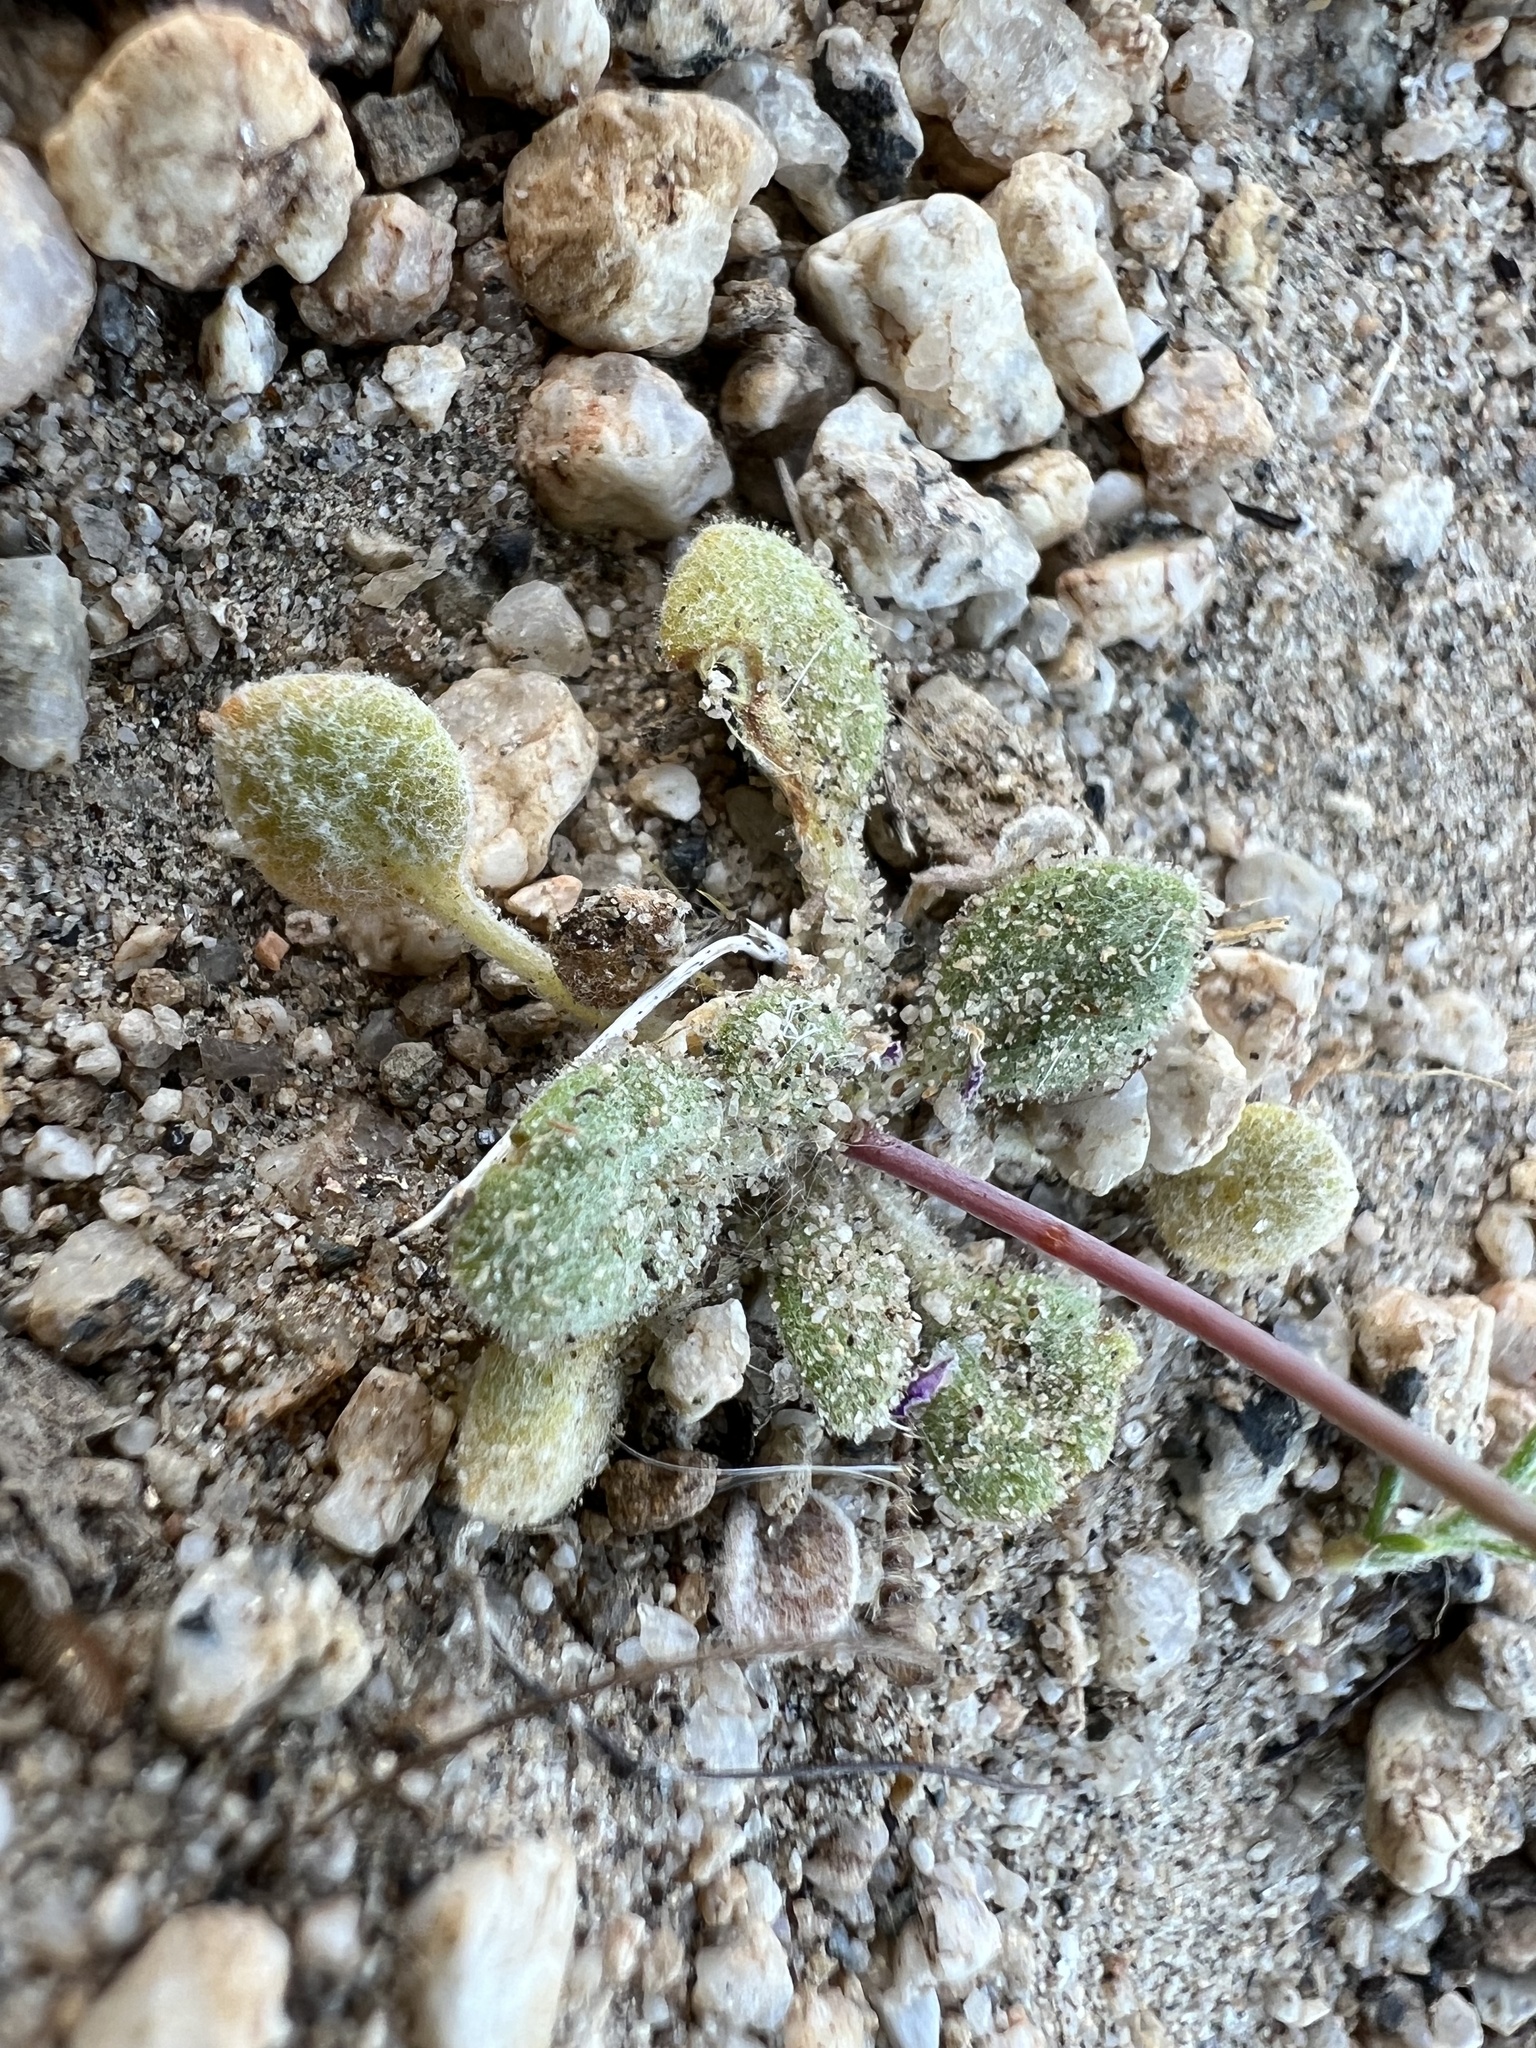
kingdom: Plantae
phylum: Tracheophyta
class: Magnoliopsida
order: Caryophyllales
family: Polygonaceae
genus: Eriogonum
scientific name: Eriogonum pusillum
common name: Yellow turbans
